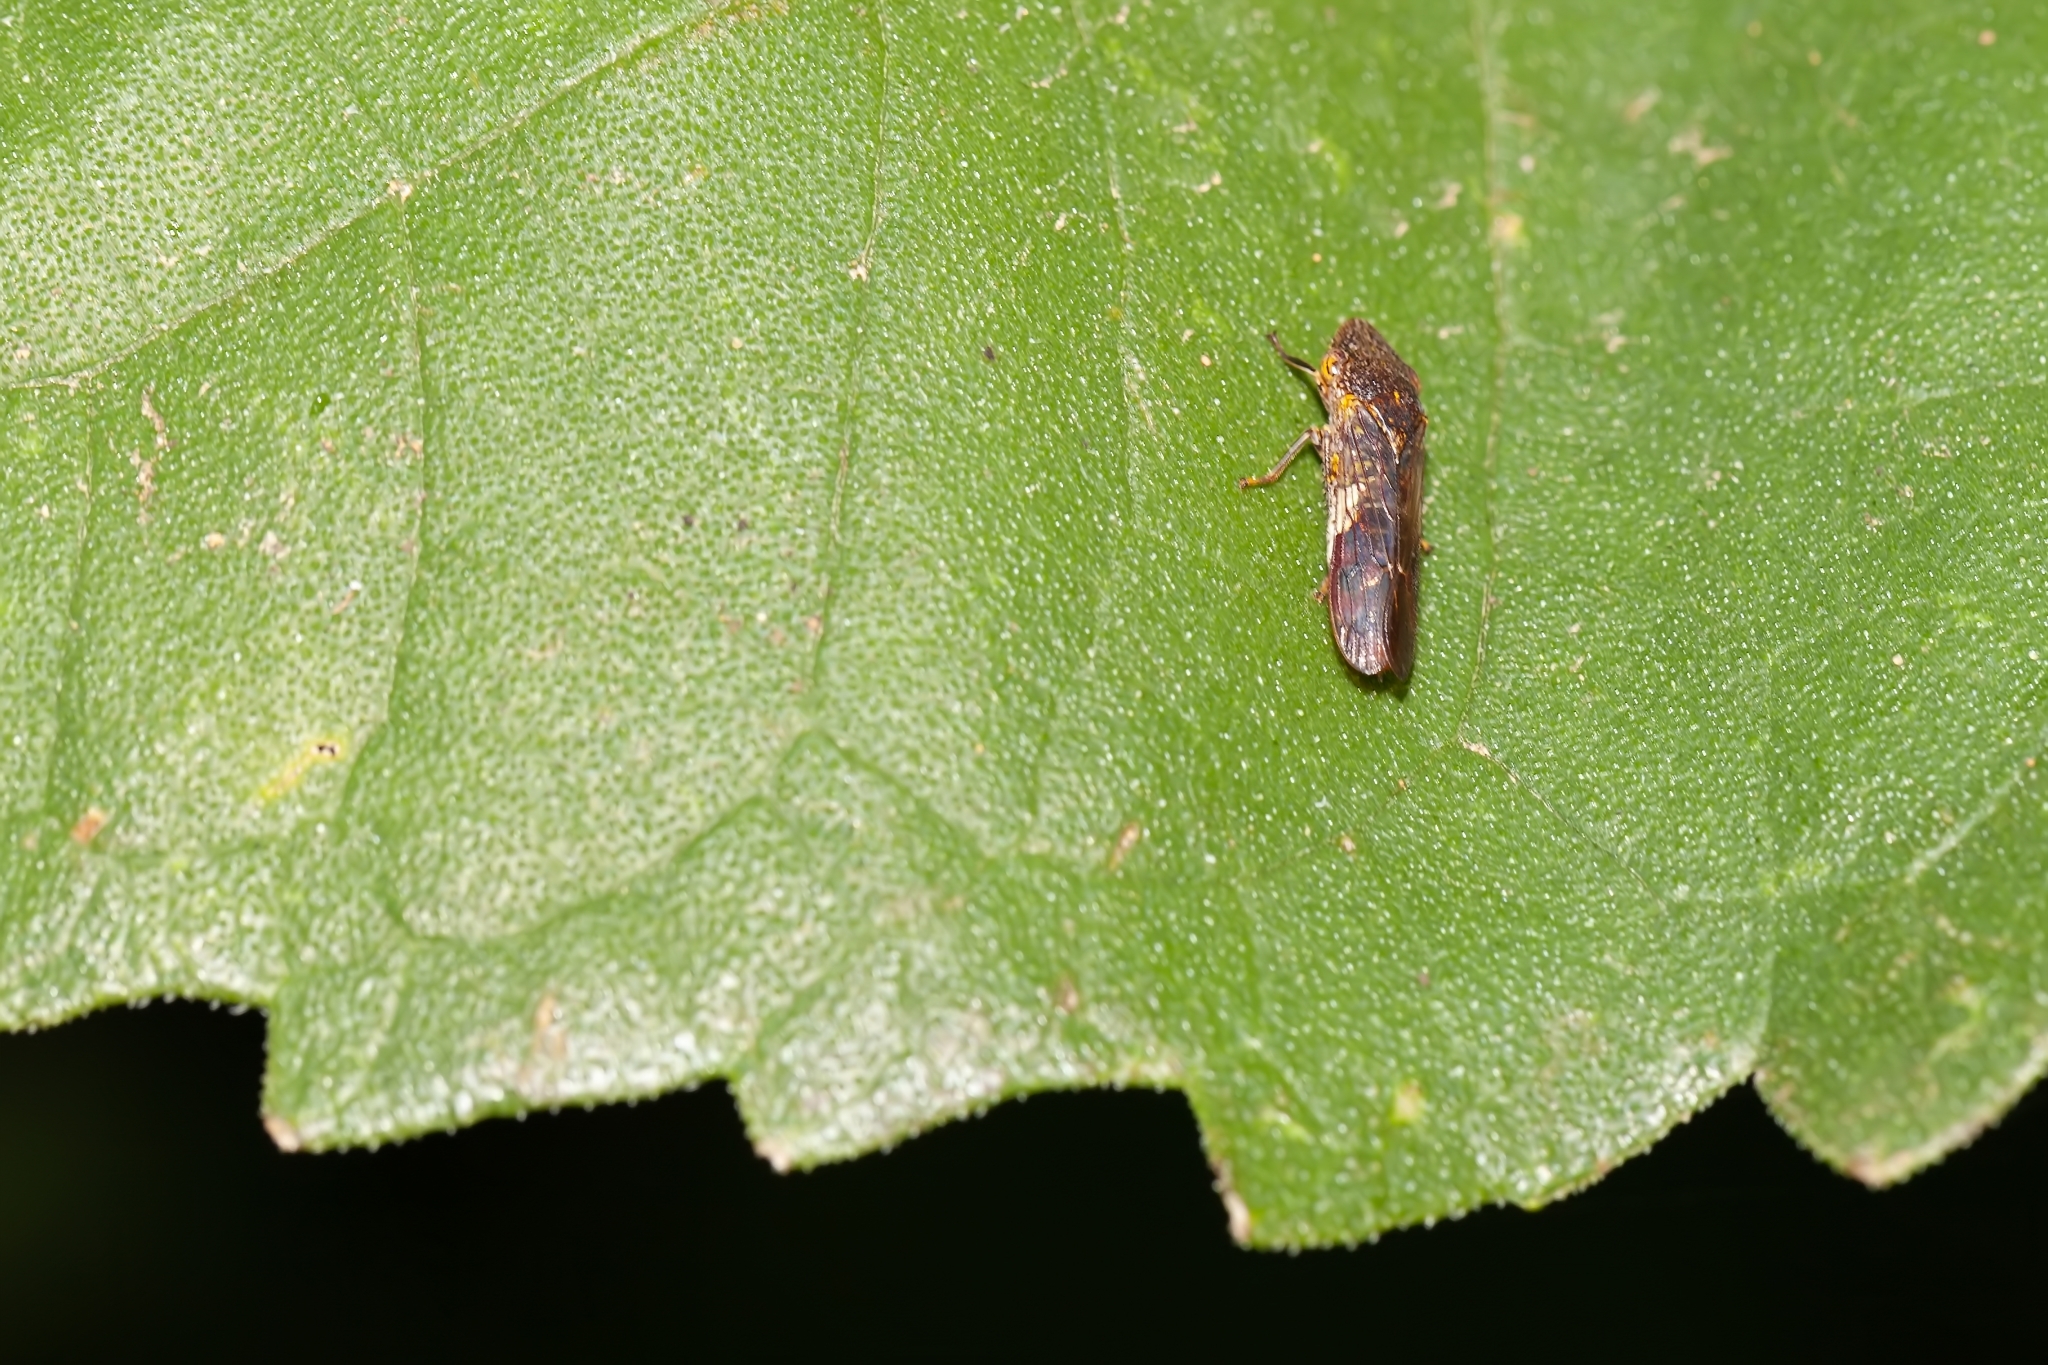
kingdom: Animalia
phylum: Arthropoda
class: Insecta
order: Hemiptera
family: Cicadellidae
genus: Homalodisca
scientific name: Homalodisca vitripennis
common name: Glassy-winged sharpshooter
